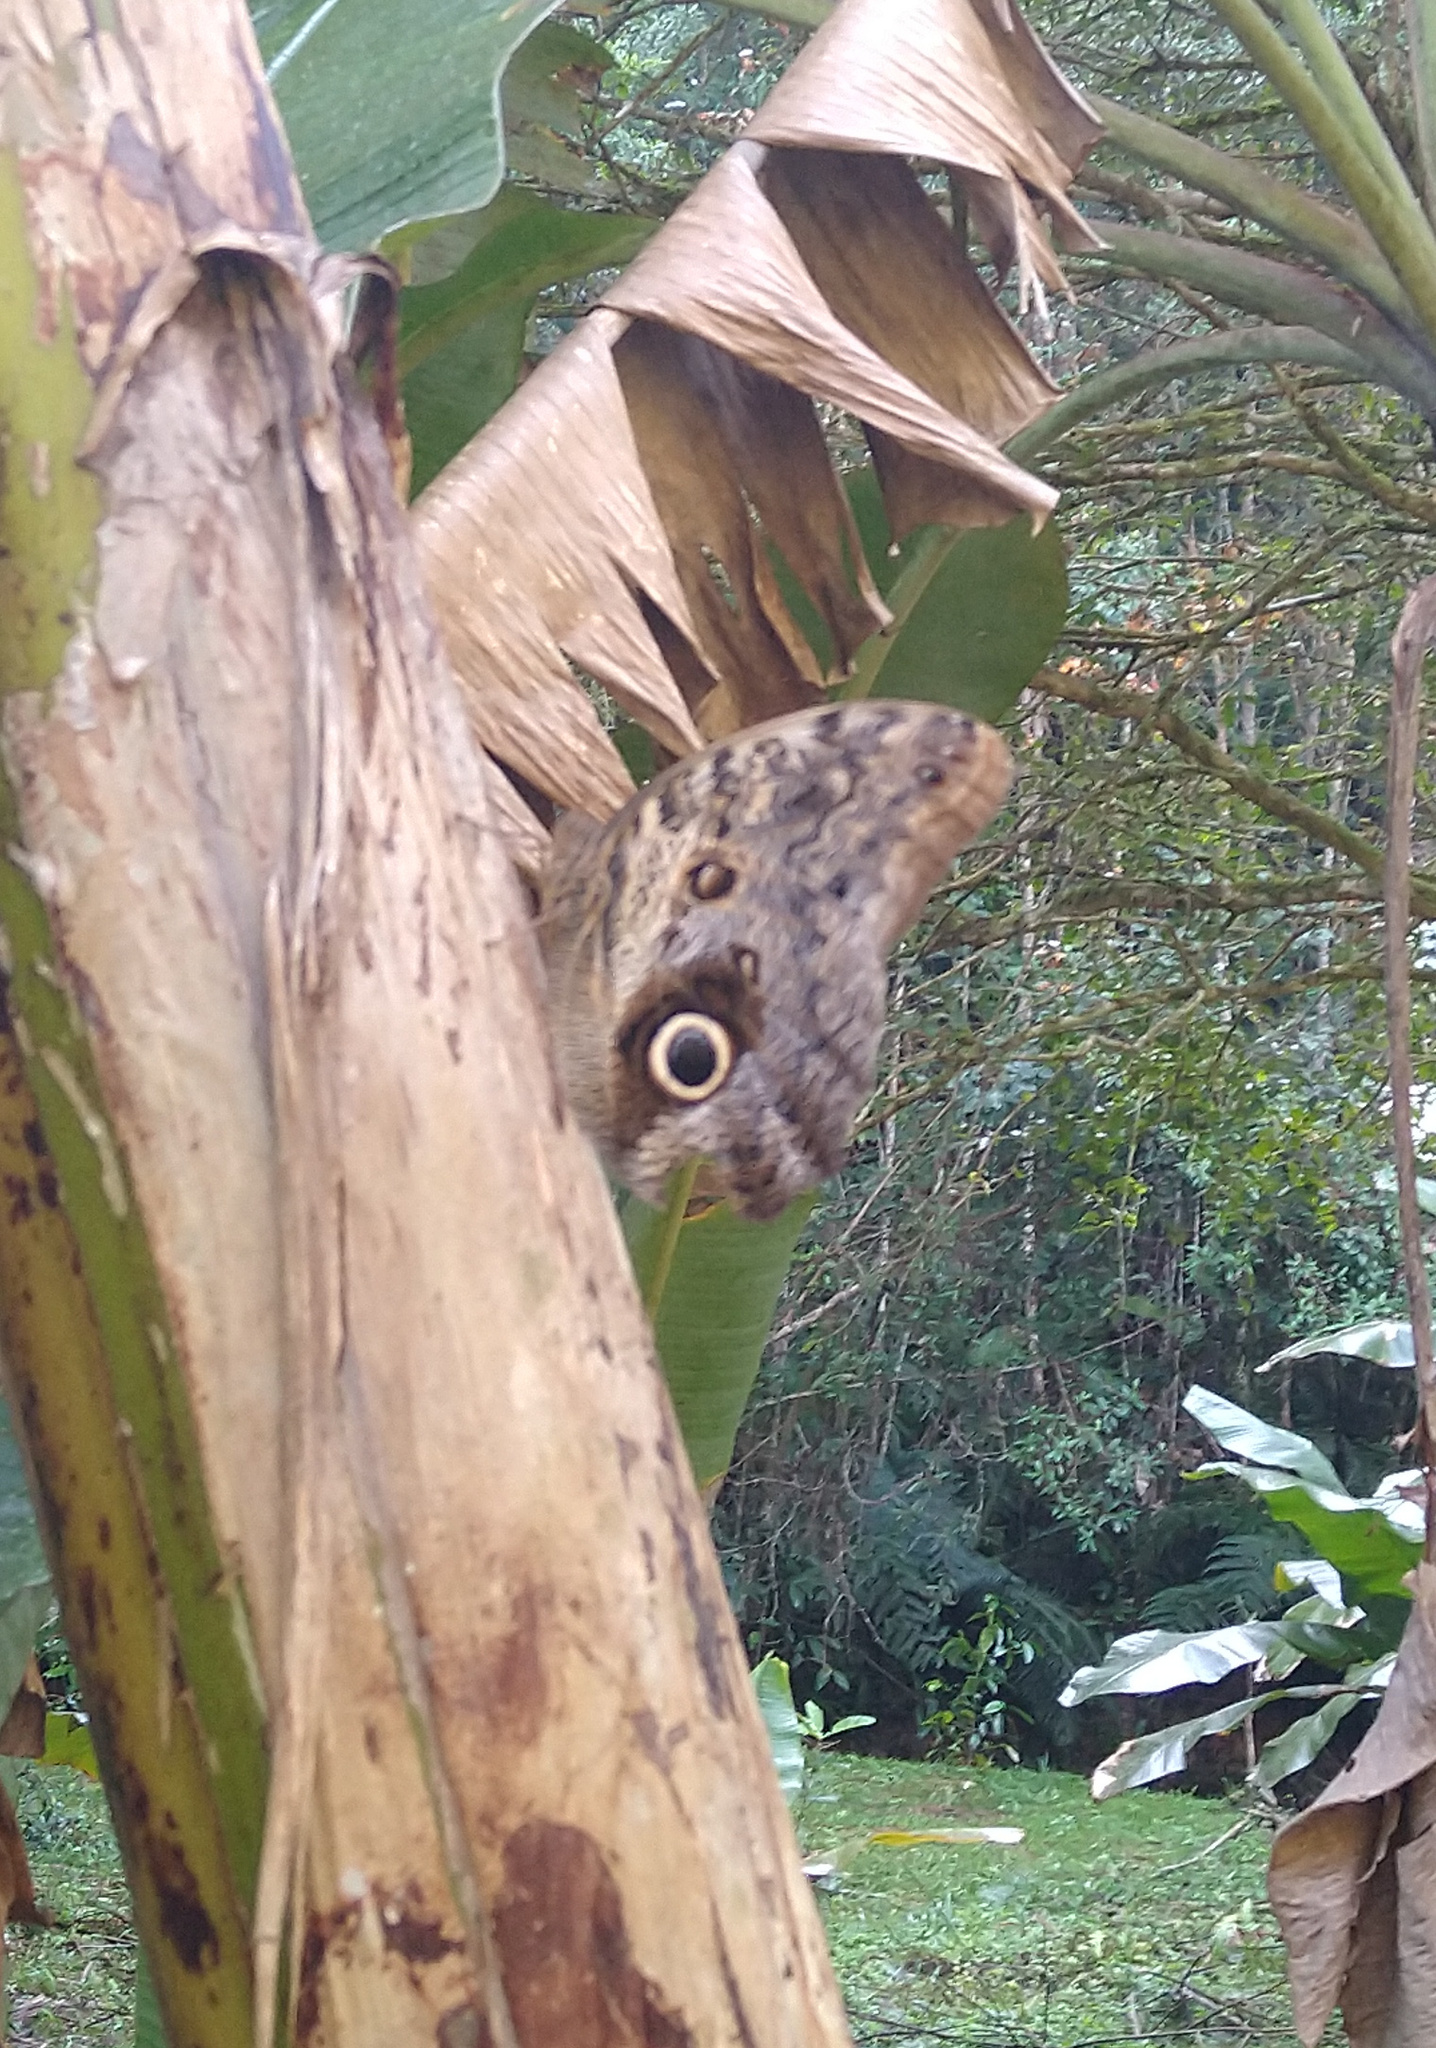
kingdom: Animalia
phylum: Arthropoda
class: Insecta
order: Lepidoptera
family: Nymphalidae
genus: Caligo
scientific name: Caligo brasiliensis
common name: Dark owl-butterfly
